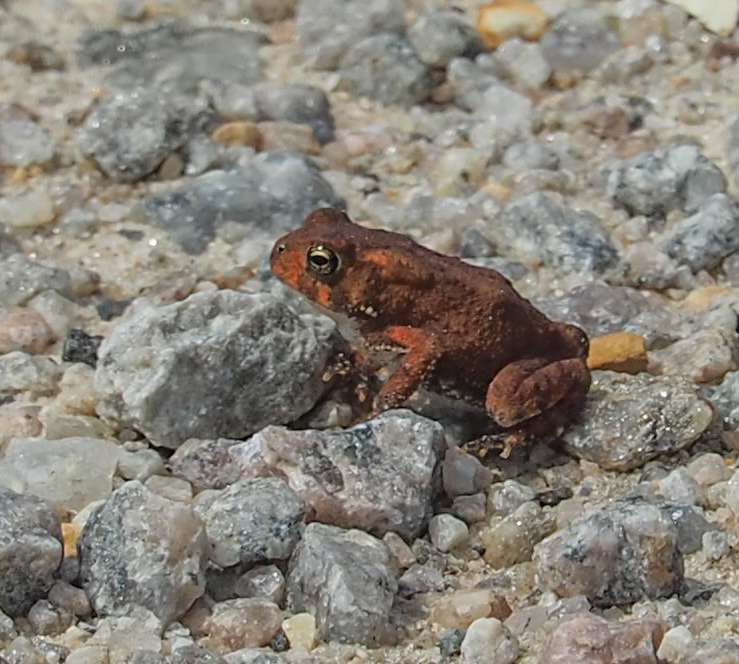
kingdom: Animalia
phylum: Chordata
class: Amphibia
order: Anura
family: Bufonidae
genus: Anaxyrus
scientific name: Anaxyrus americanus
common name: American toad
